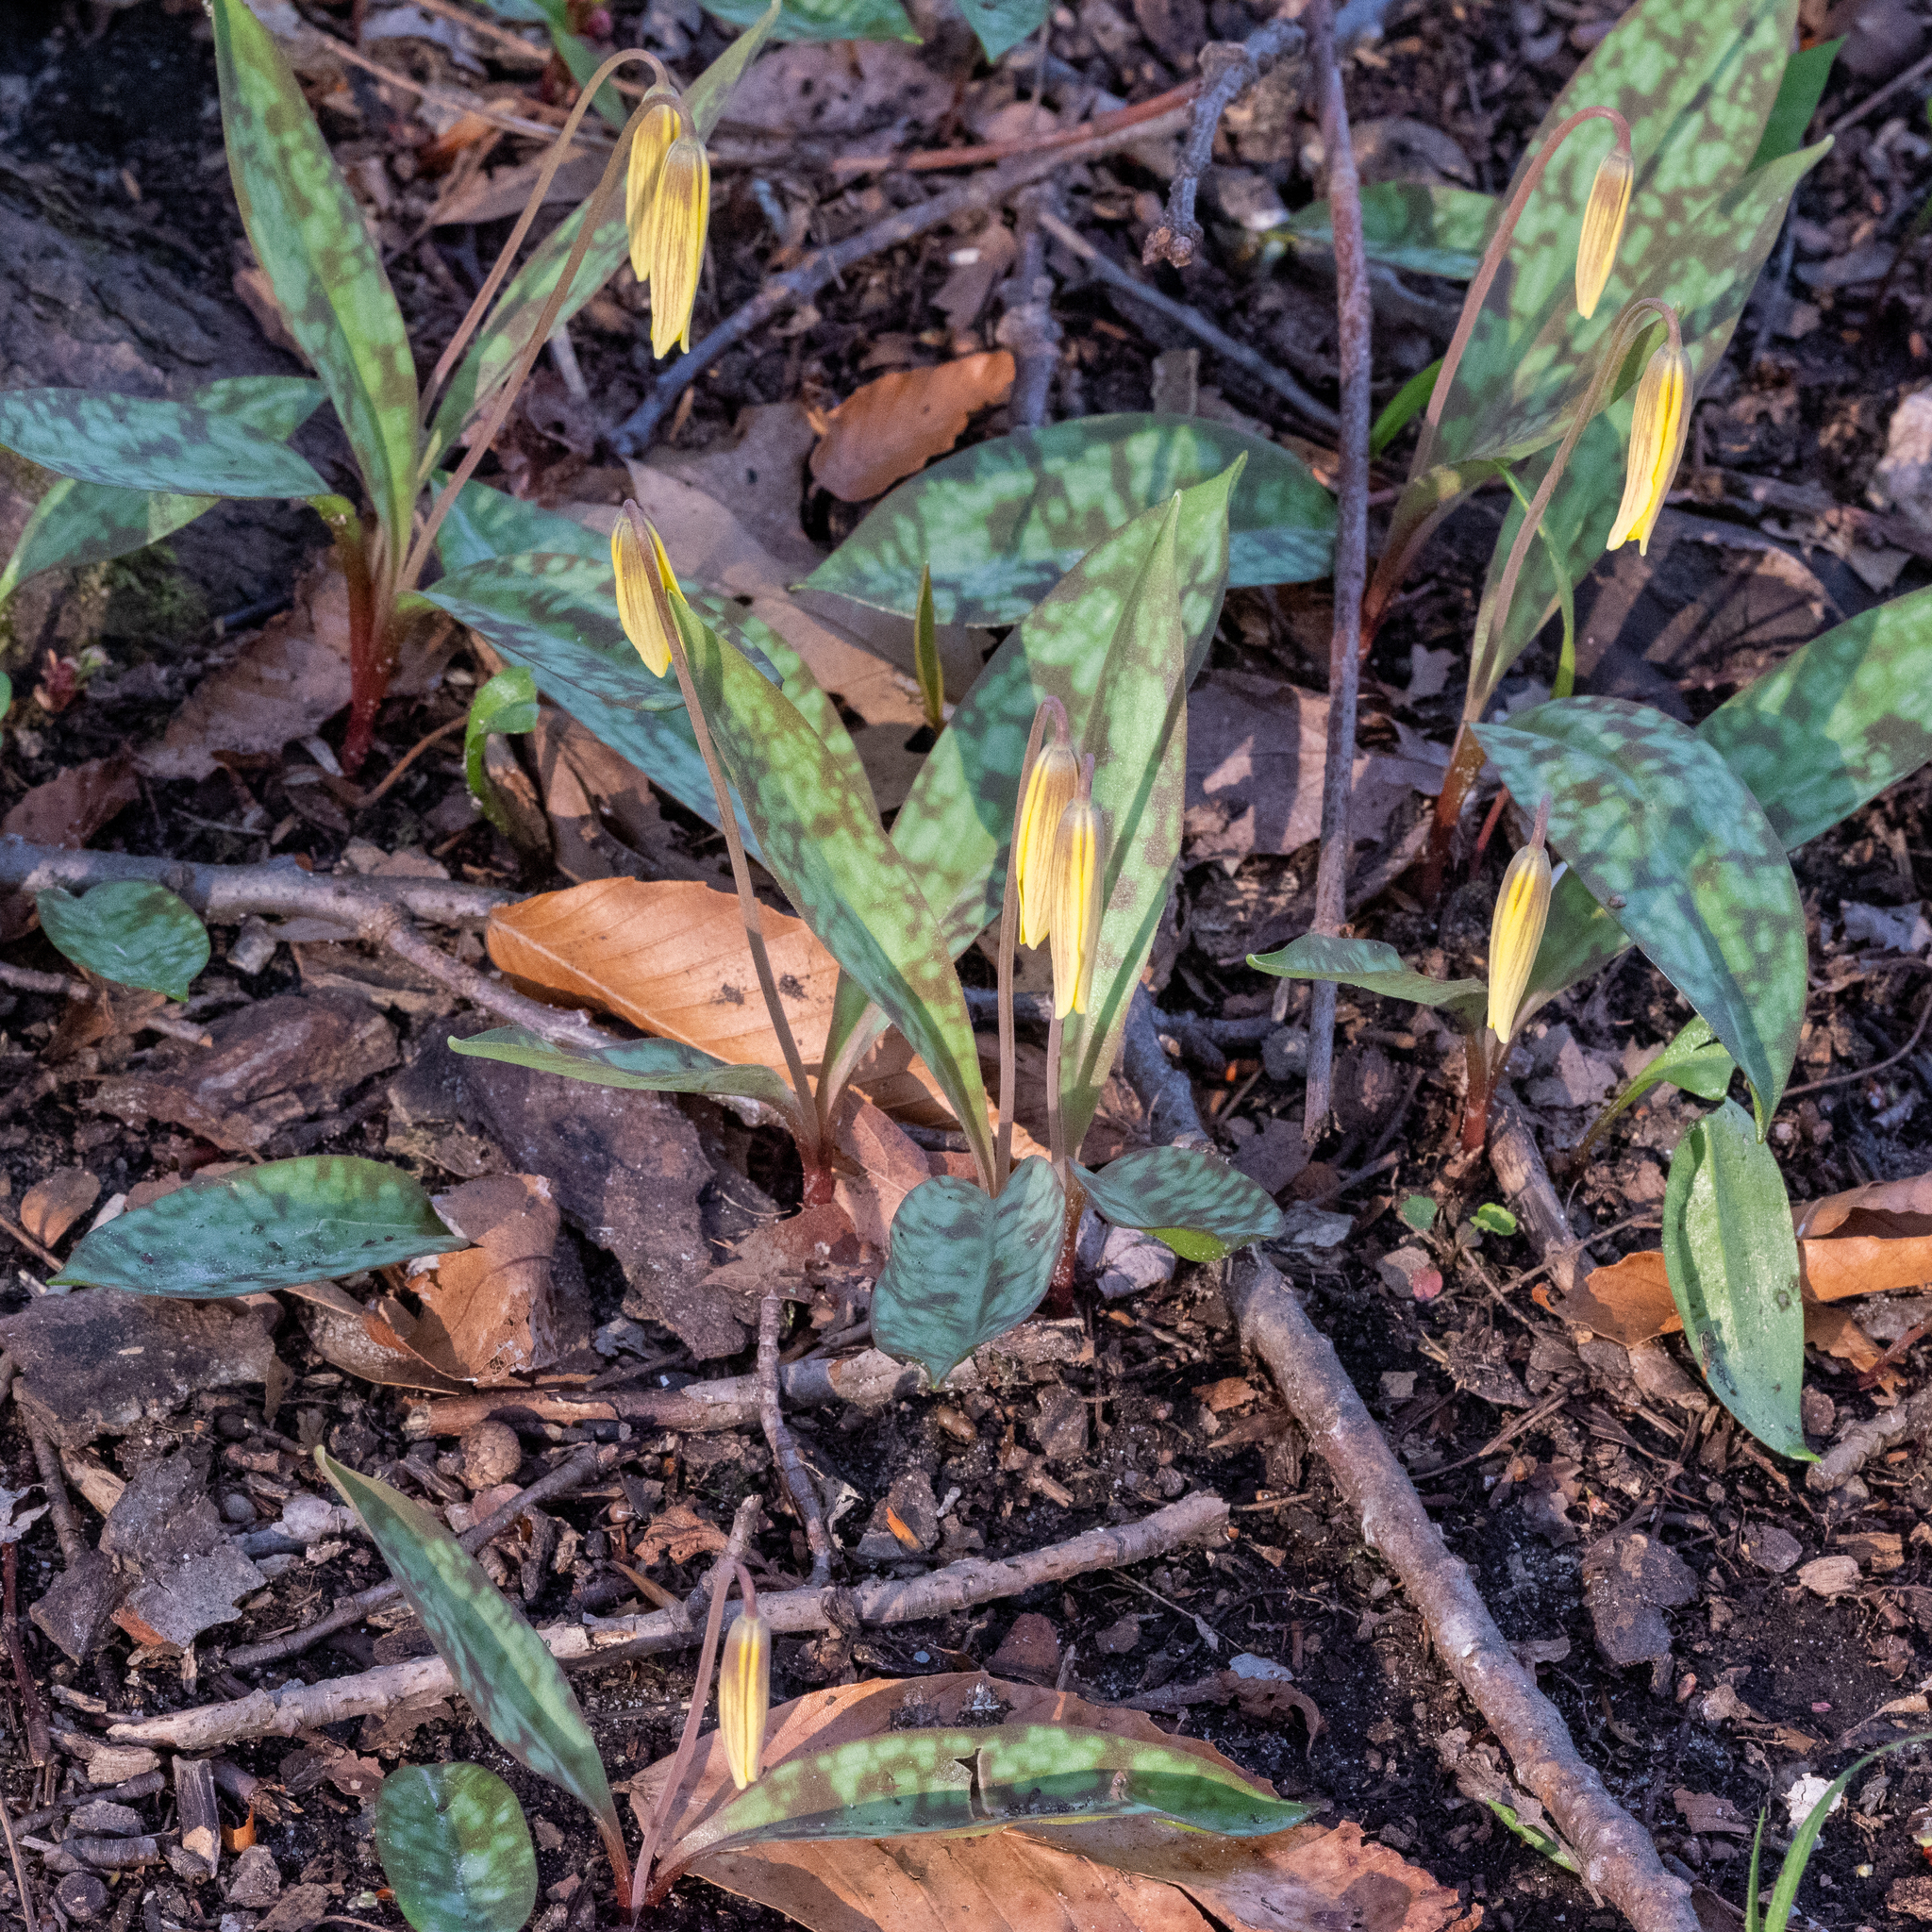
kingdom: Plantae
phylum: Tracheophyta
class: Liliopsida
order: Liliales
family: Liliaceae
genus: Erythronium
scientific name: Erythronium americanum
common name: Yellow adder's-tongue
